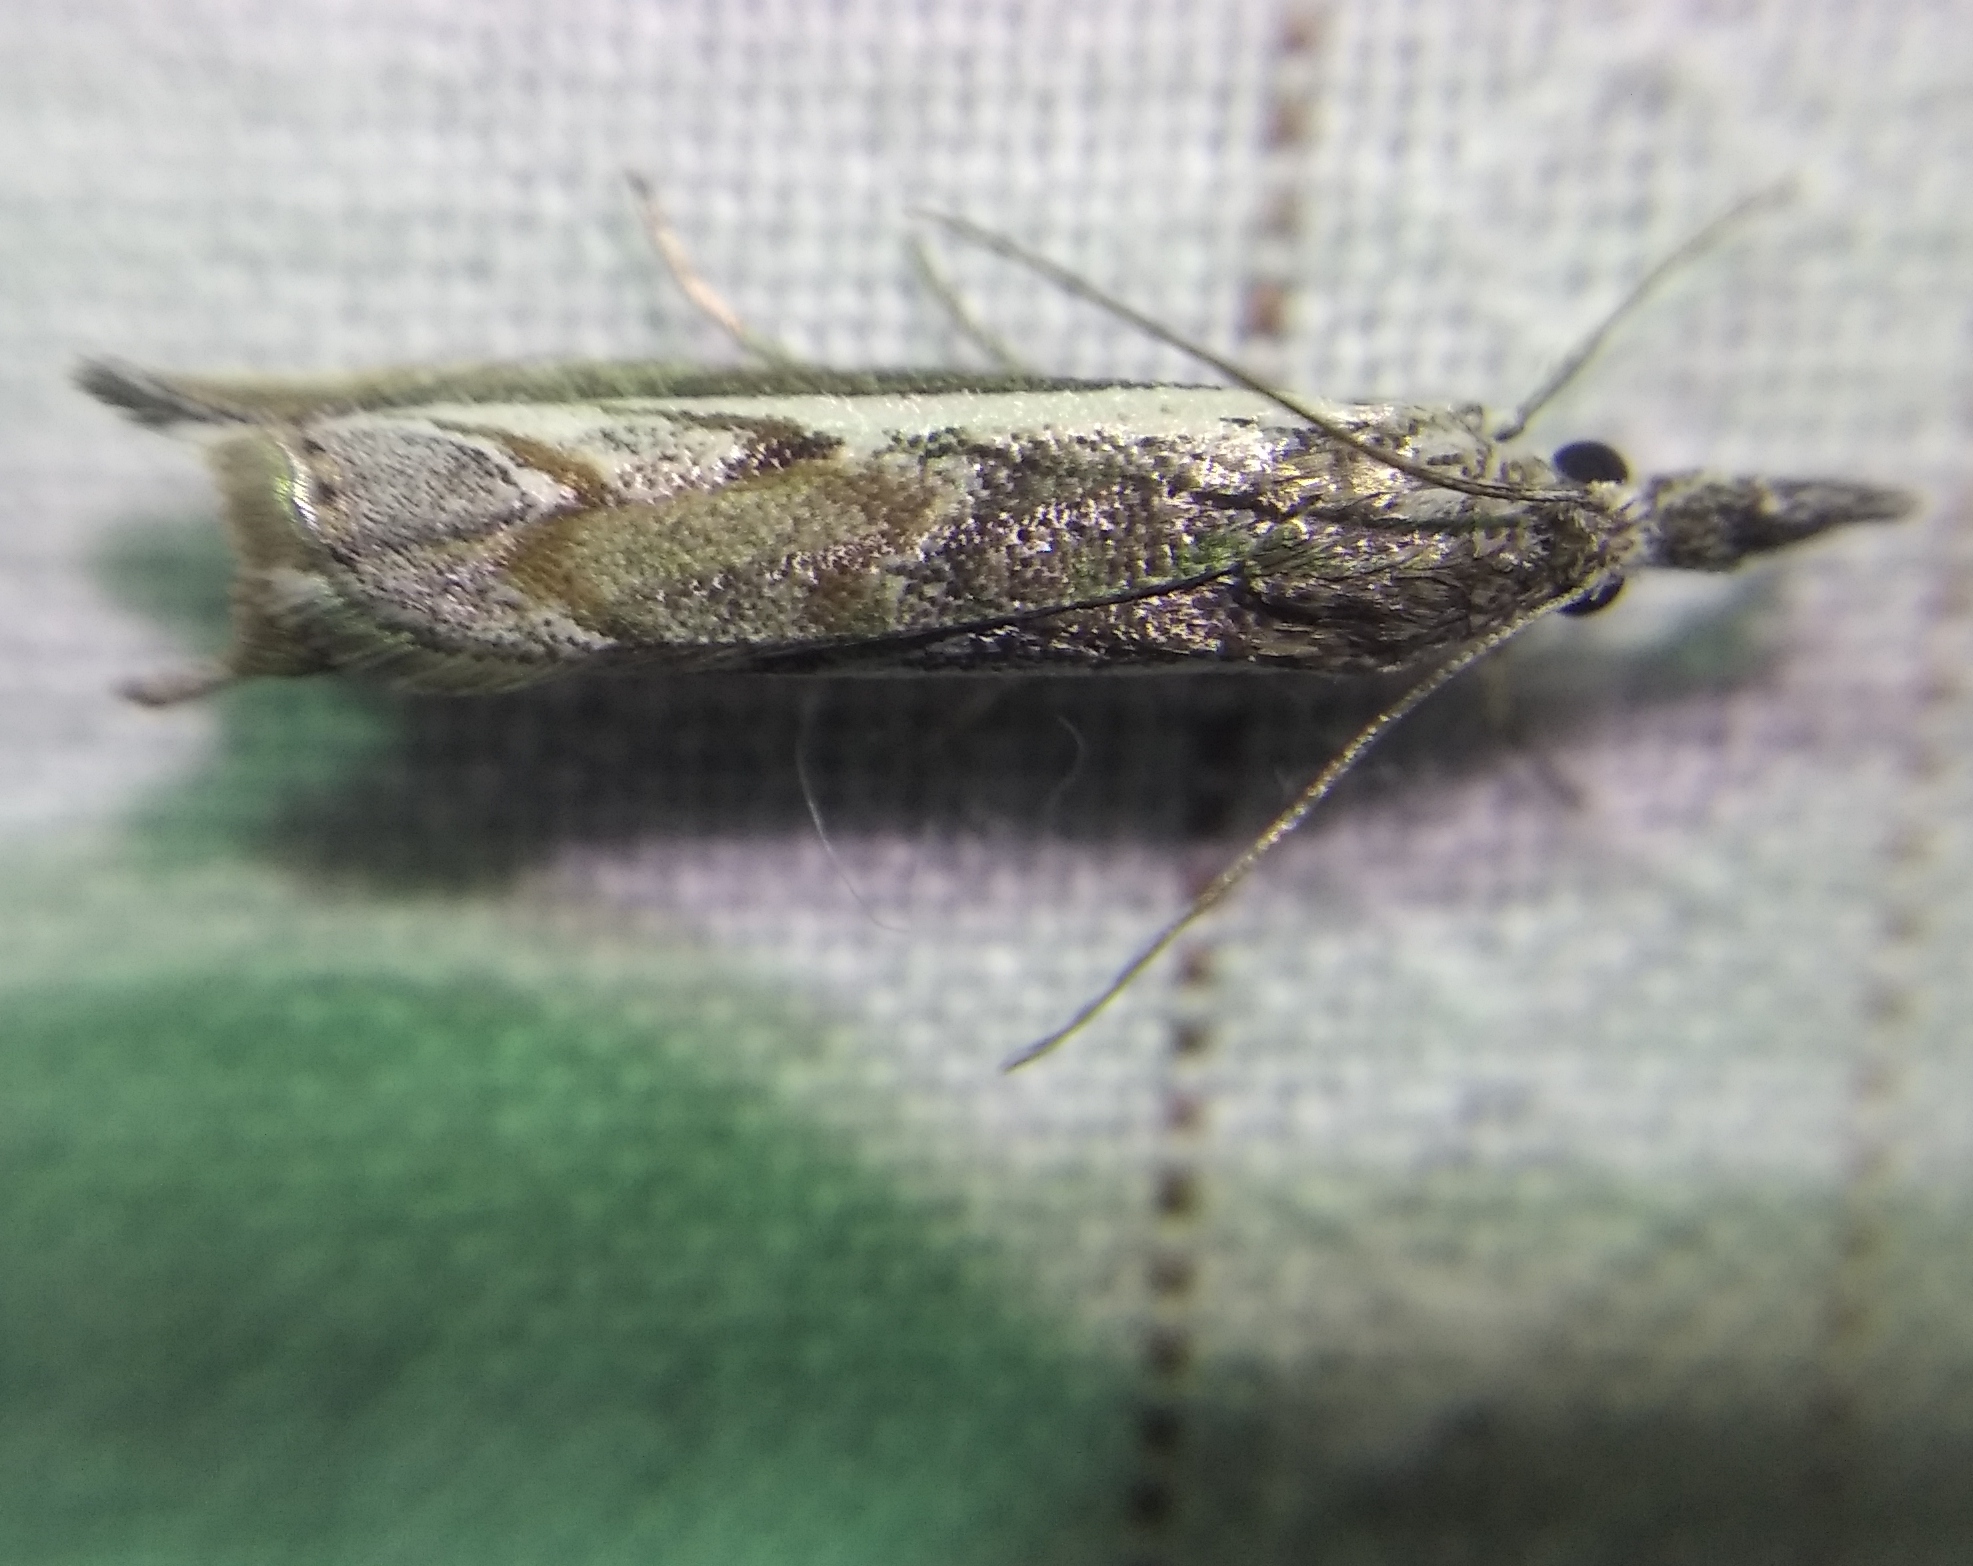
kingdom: Animalia
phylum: Arthropoda
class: Insecta
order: Lepidoptera
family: Crambidae
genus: Platytes
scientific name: Platytes alpinella
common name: Hook-tipped grass-veneer
